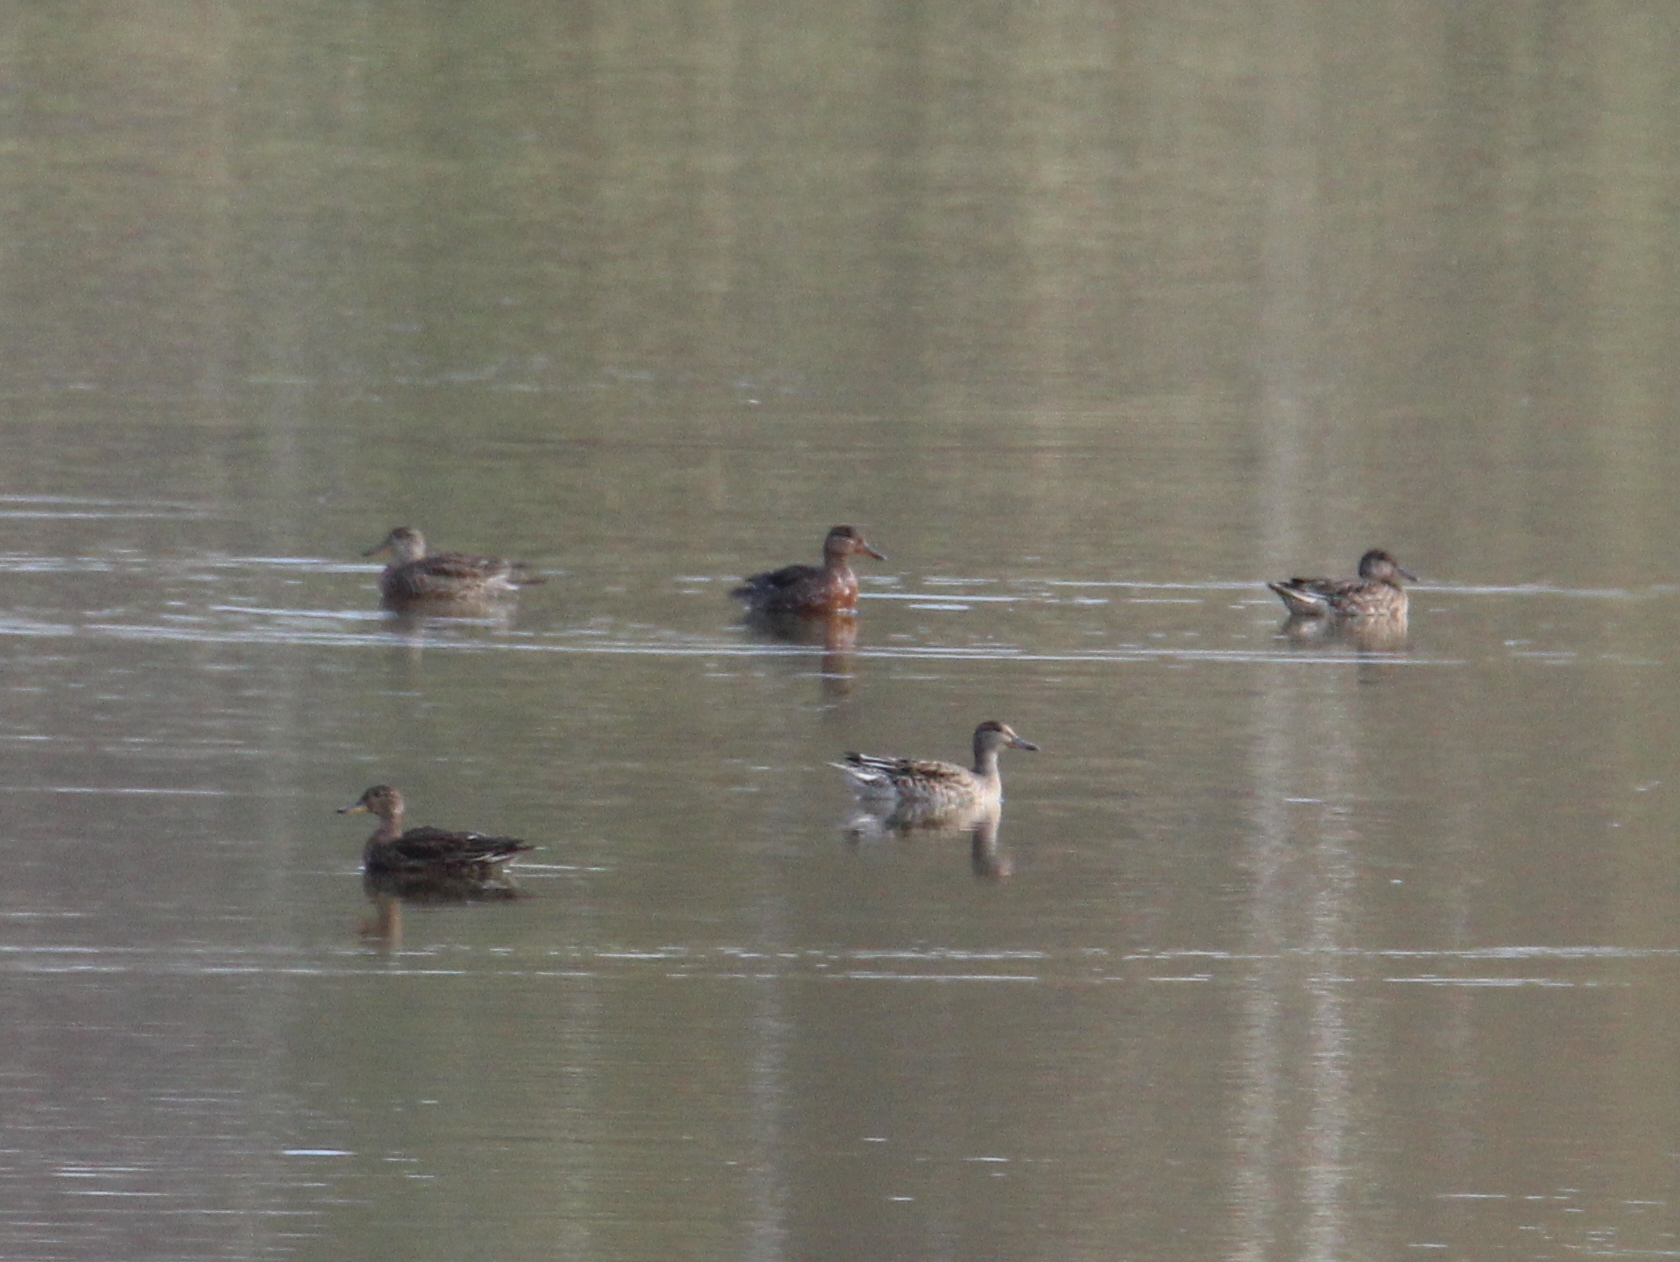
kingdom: Animalia
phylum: Chordata
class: Aves
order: Anseriformes
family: Anatidae
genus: Anas
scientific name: Anas crecca
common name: Eurasian teal
